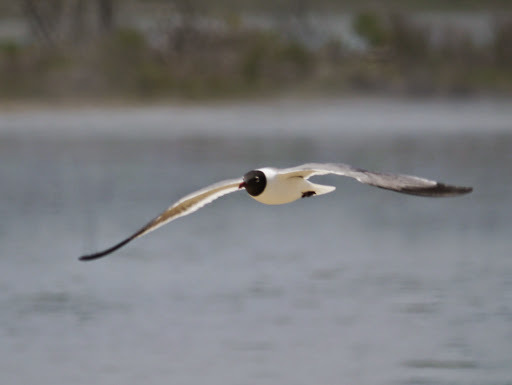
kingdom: Animalia
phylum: Chordata
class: Aves
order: Charadriiformes
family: Laridae
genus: Leucophaeus
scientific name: Leucophaeus atricilla
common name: Laughing gull
